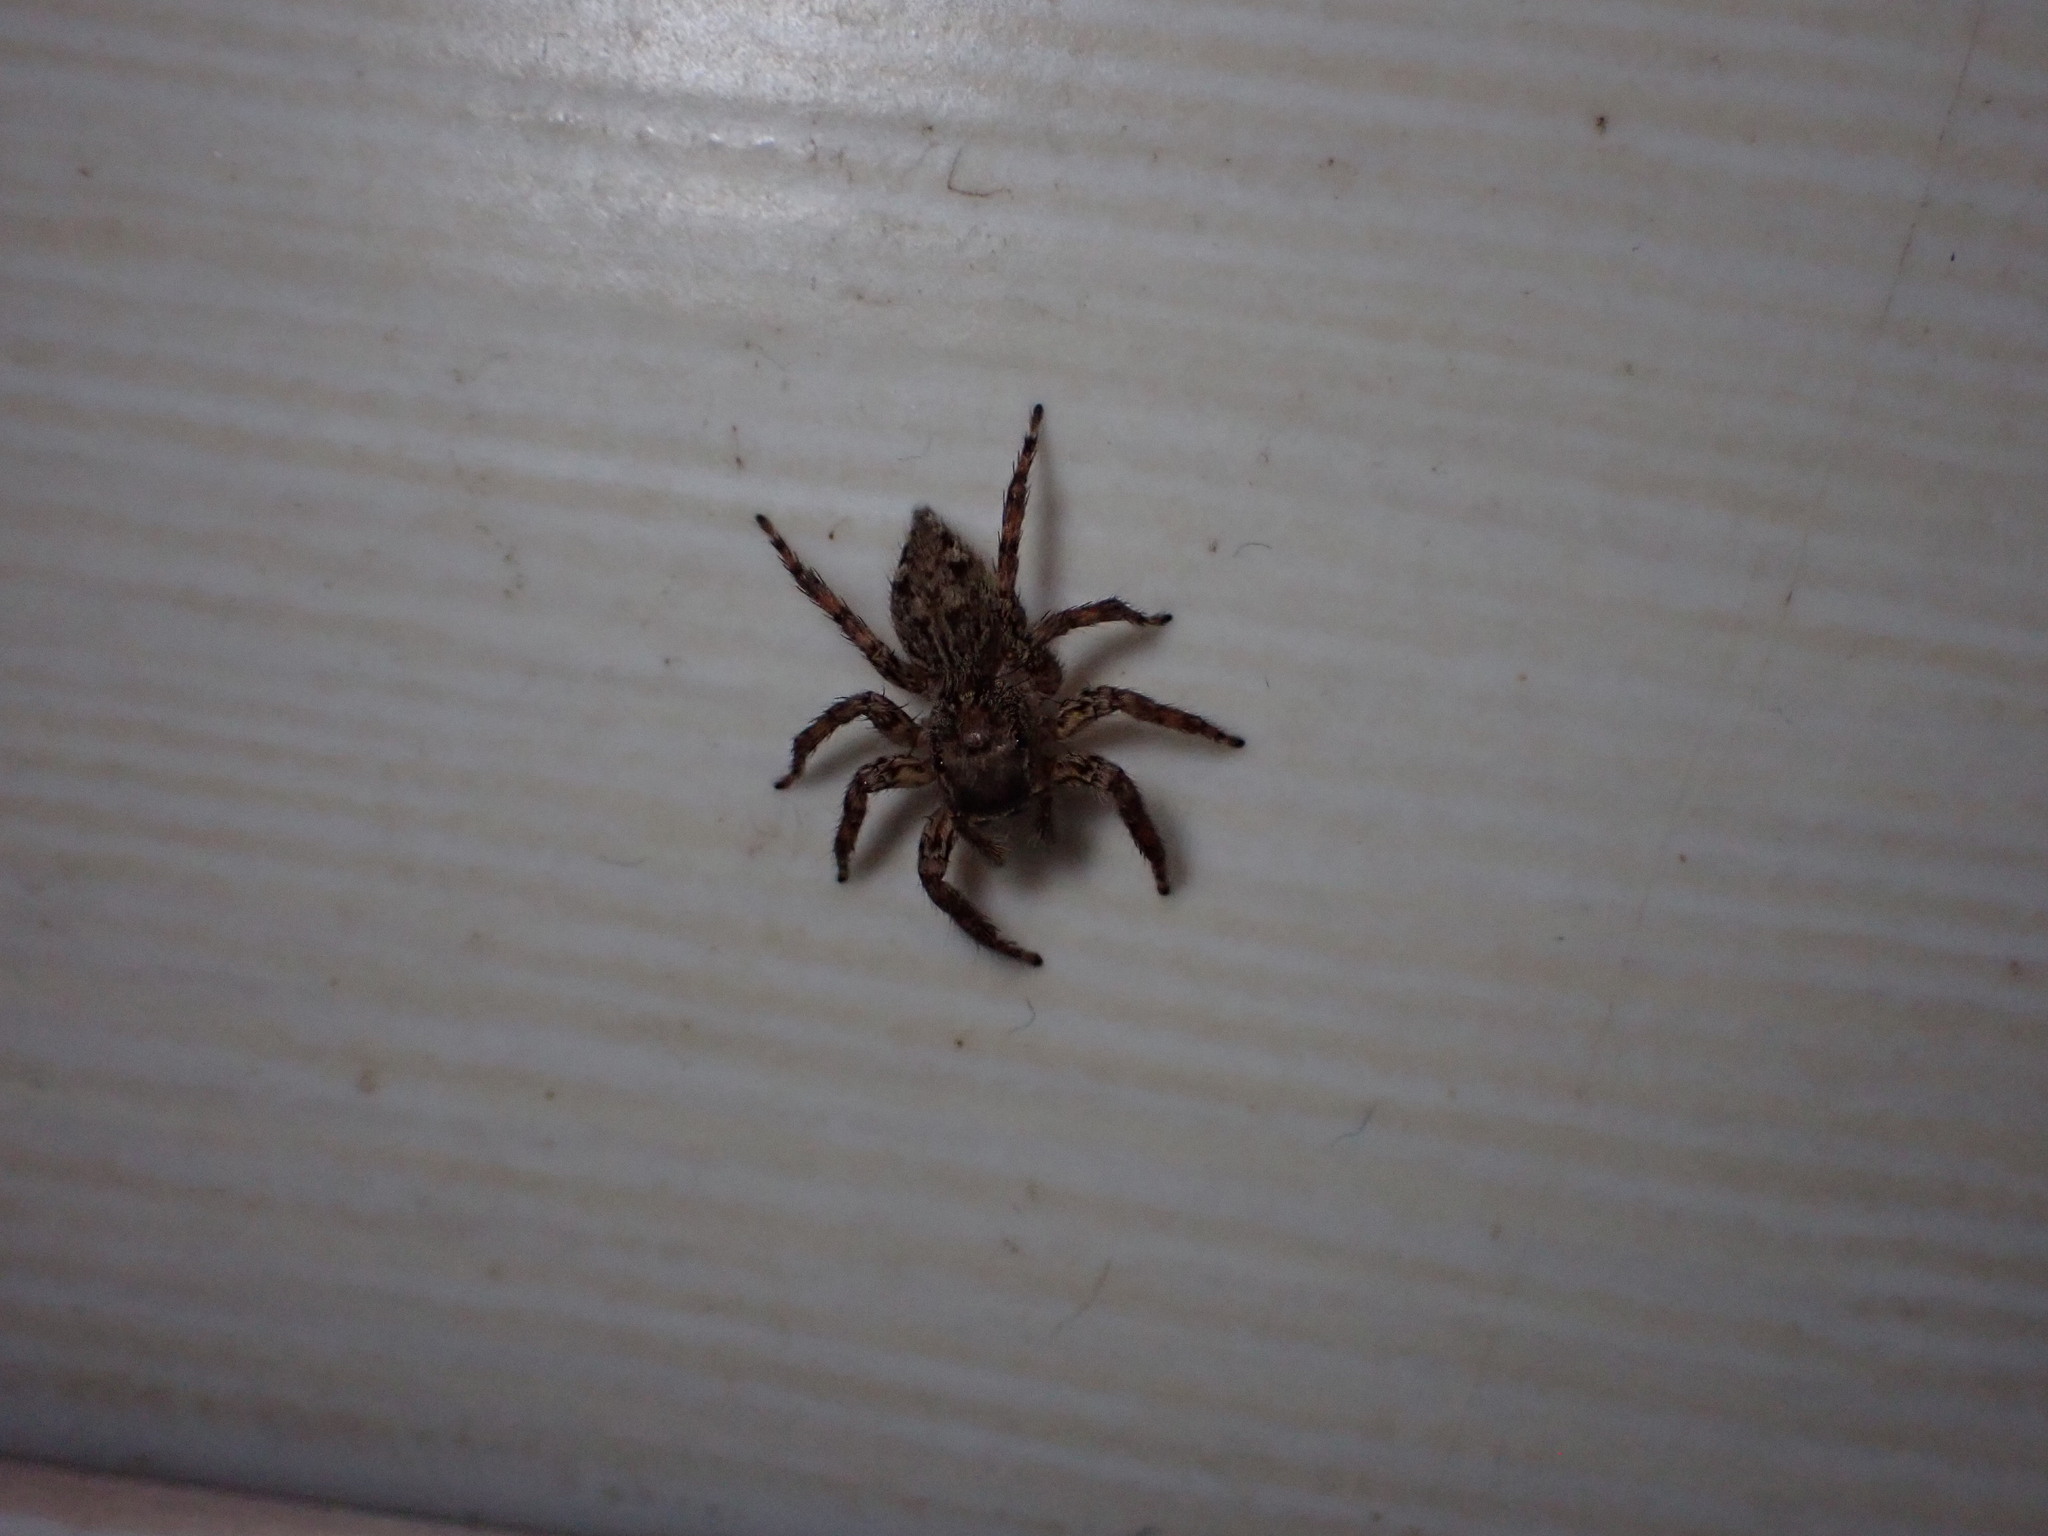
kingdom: Animalia
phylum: Arthropoda
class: Arachnida
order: Araneae
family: Salticidae
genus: Plexippus
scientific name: Plexippus petersi
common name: Jumping spider
